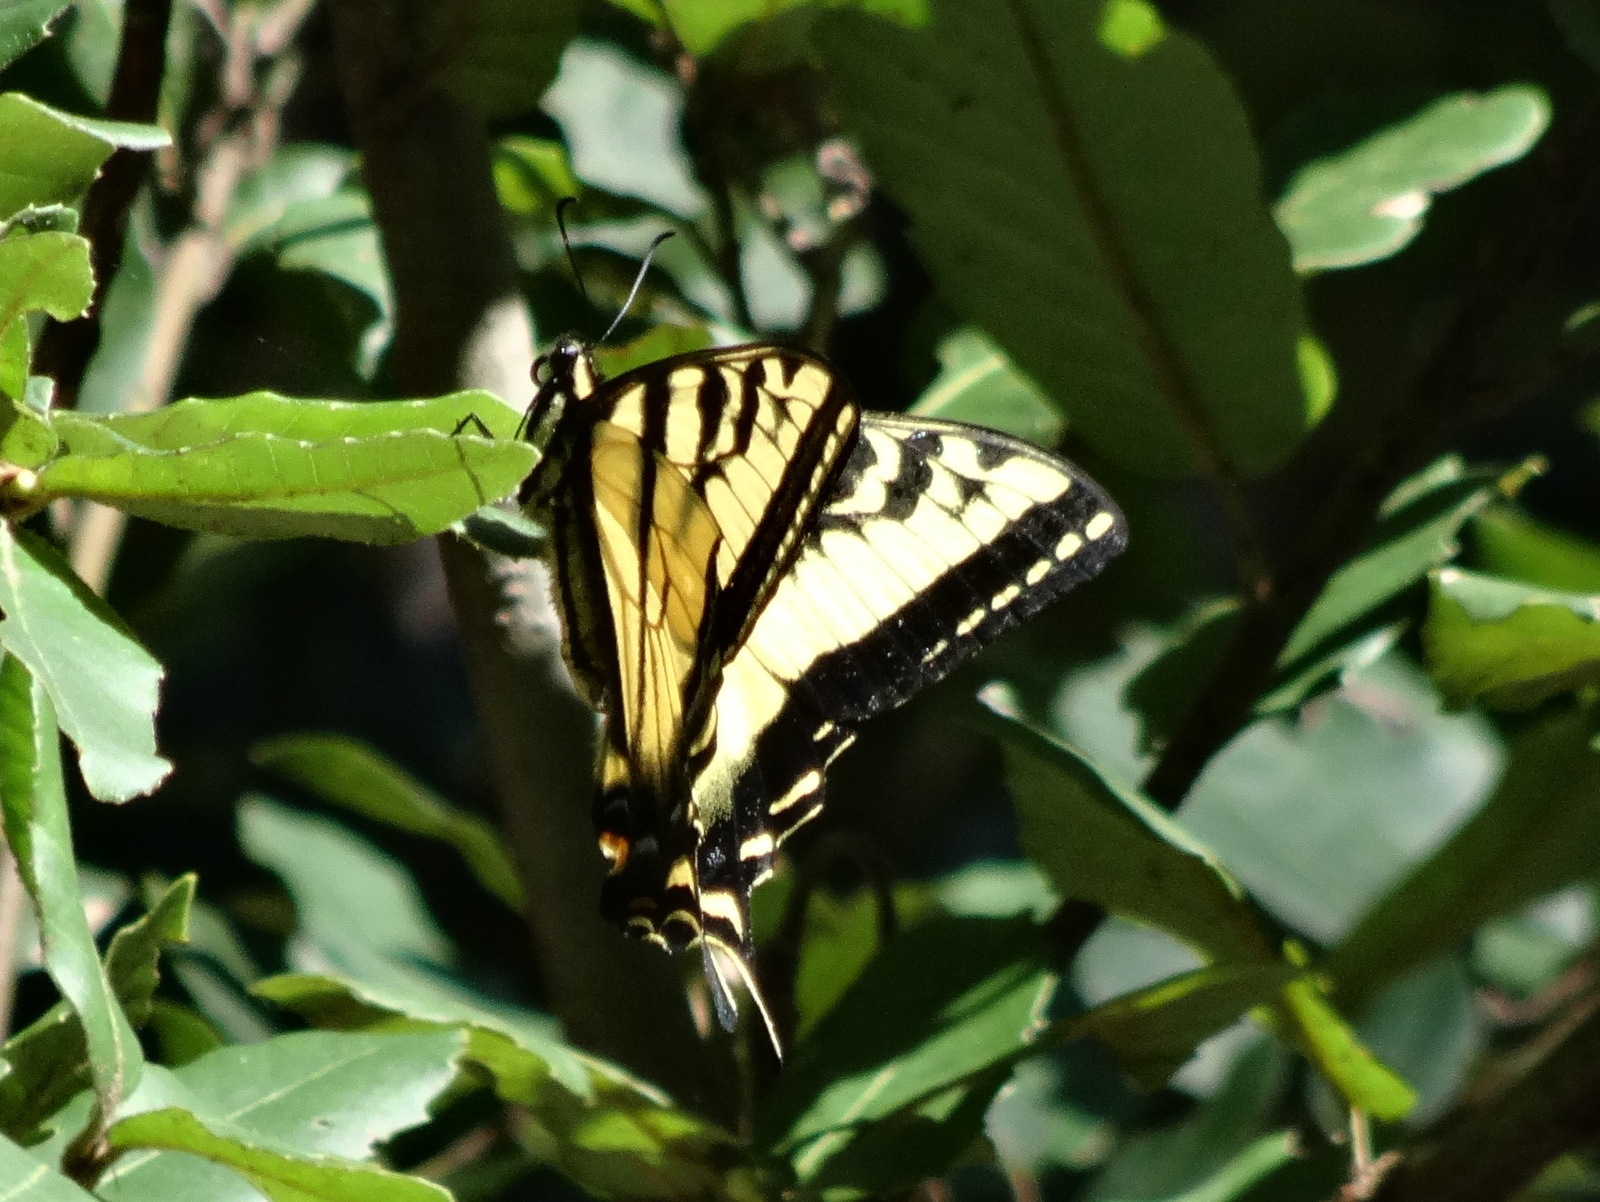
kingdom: Animalia
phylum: Arthropoda
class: Insecta
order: Lepidoptera
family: Papilionidae
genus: Papilio
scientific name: Papilio rutulus
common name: Western tiger swallowtail
